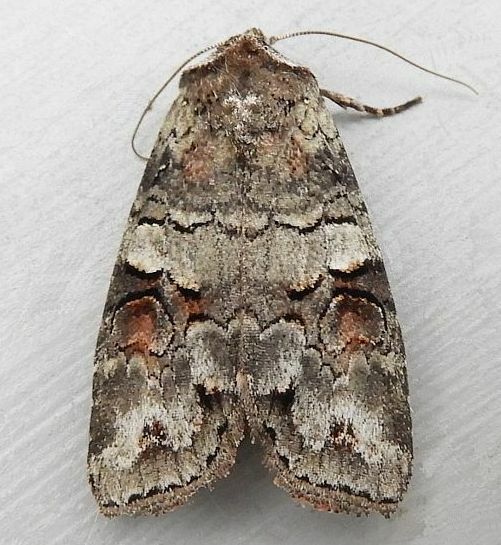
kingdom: Animalia
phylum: Arthropoda
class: Insecta
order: Lepidoptera
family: Noctuidae
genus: Egira
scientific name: Egira alternans
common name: Alternate woodling
